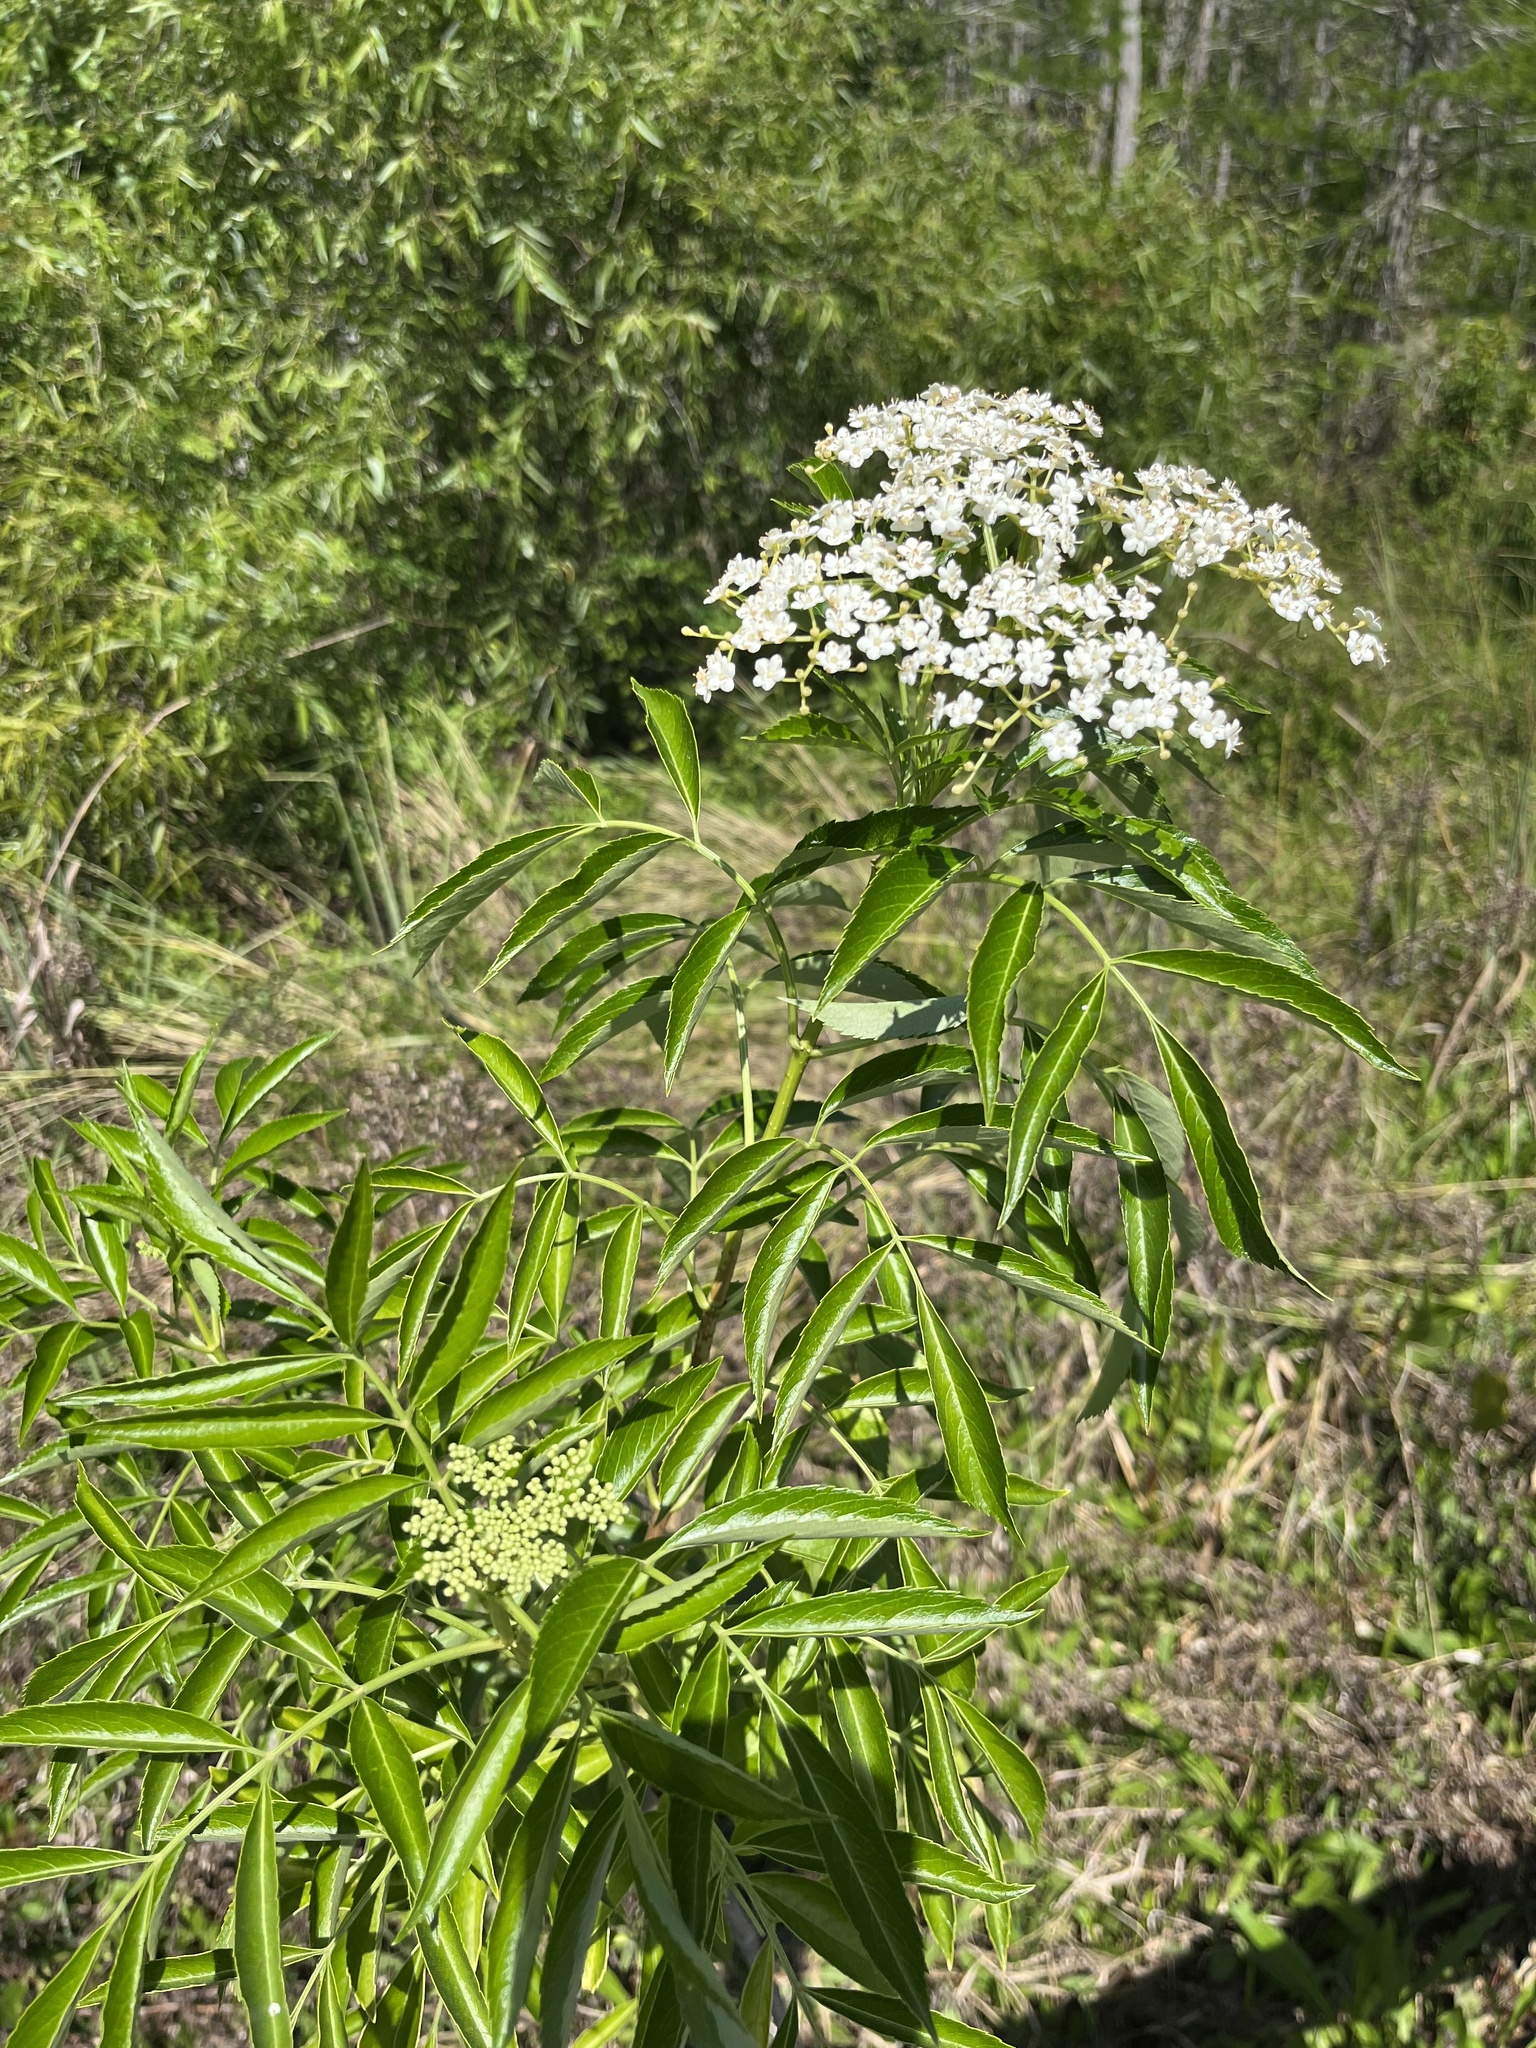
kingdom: Plantae
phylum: Tracheophyta
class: Magnoliopsida
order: Dipsacales
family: Viburnaceae
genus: Sambucus
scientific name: Sambucus canadensis
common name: American elder
